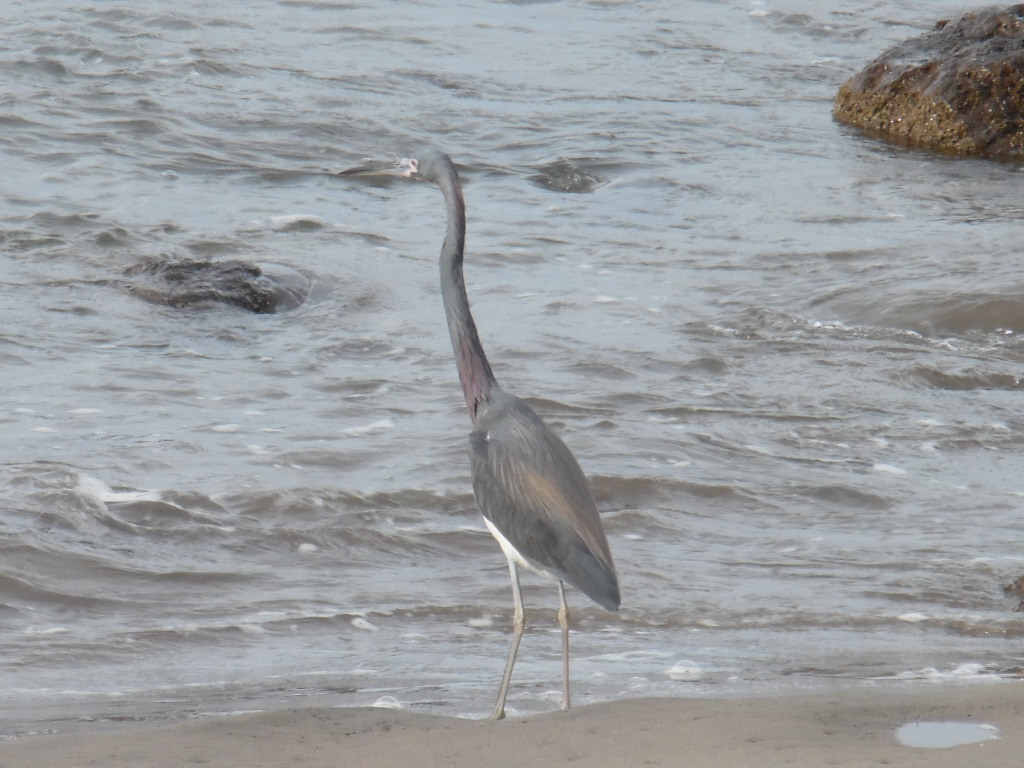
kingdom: Animalia
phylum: Chordata
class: Aves
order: Pelecaniformes
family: Ardeidae
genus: Egretta
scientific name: Egretta tricolor
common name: Tricolored heron
